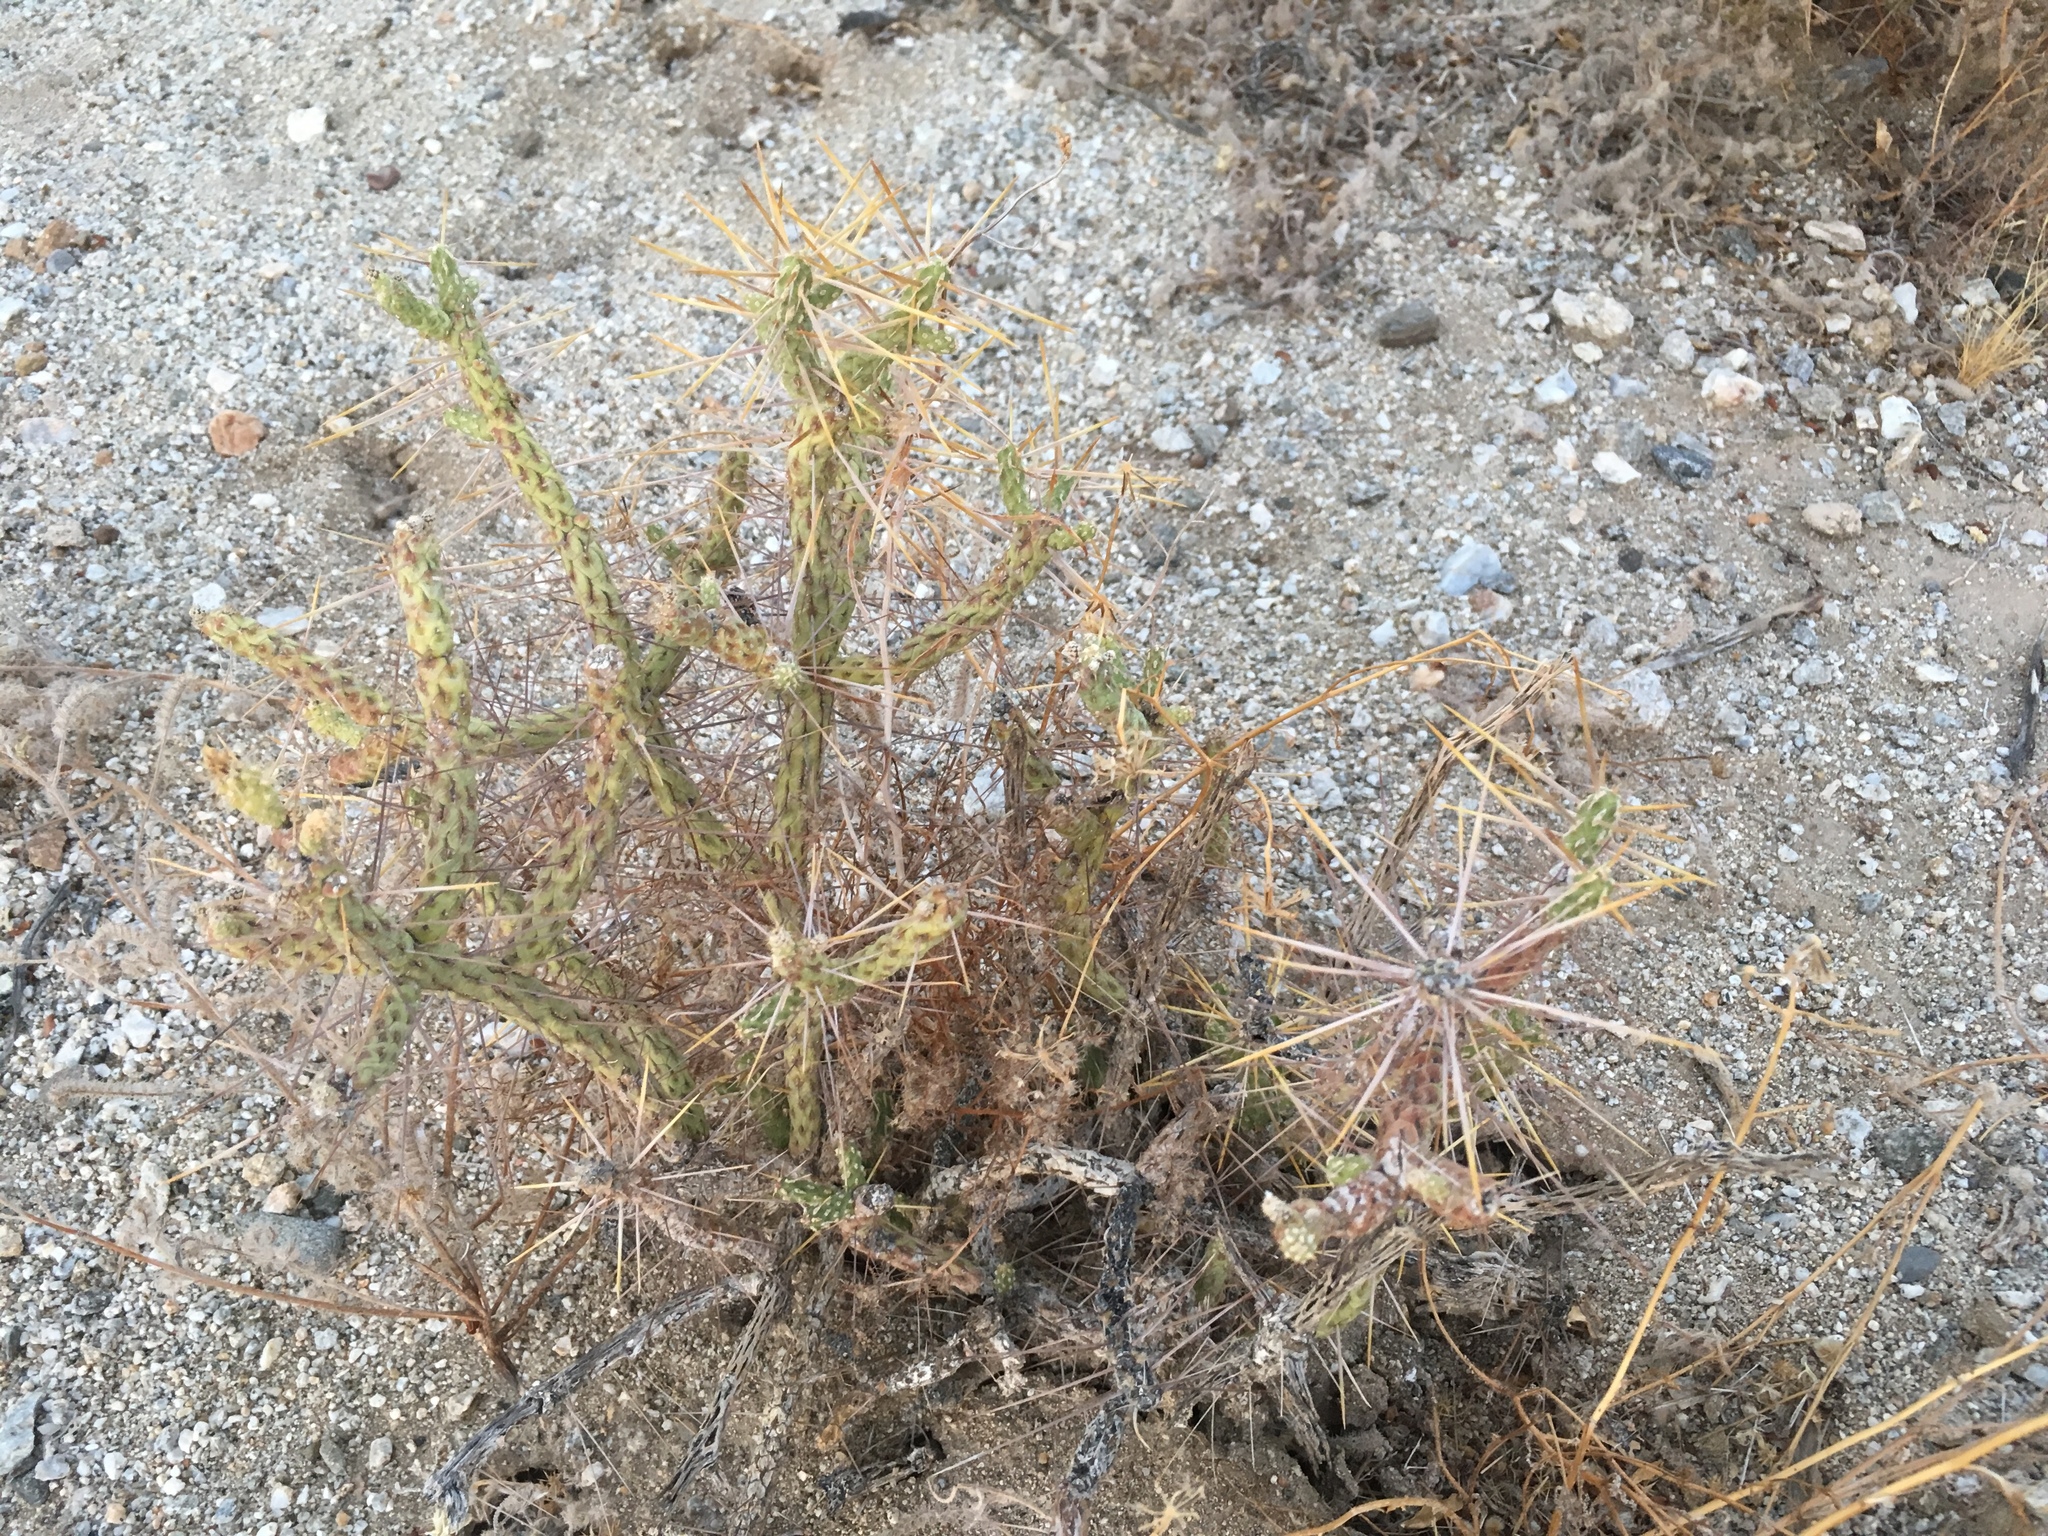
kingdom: Plantae
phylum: Tracheophyta
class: Magnoliopsida
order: Caryophyllales
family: Cactaceae
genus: Cylindropuntia
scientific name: Cylindropuntia ramosissima
